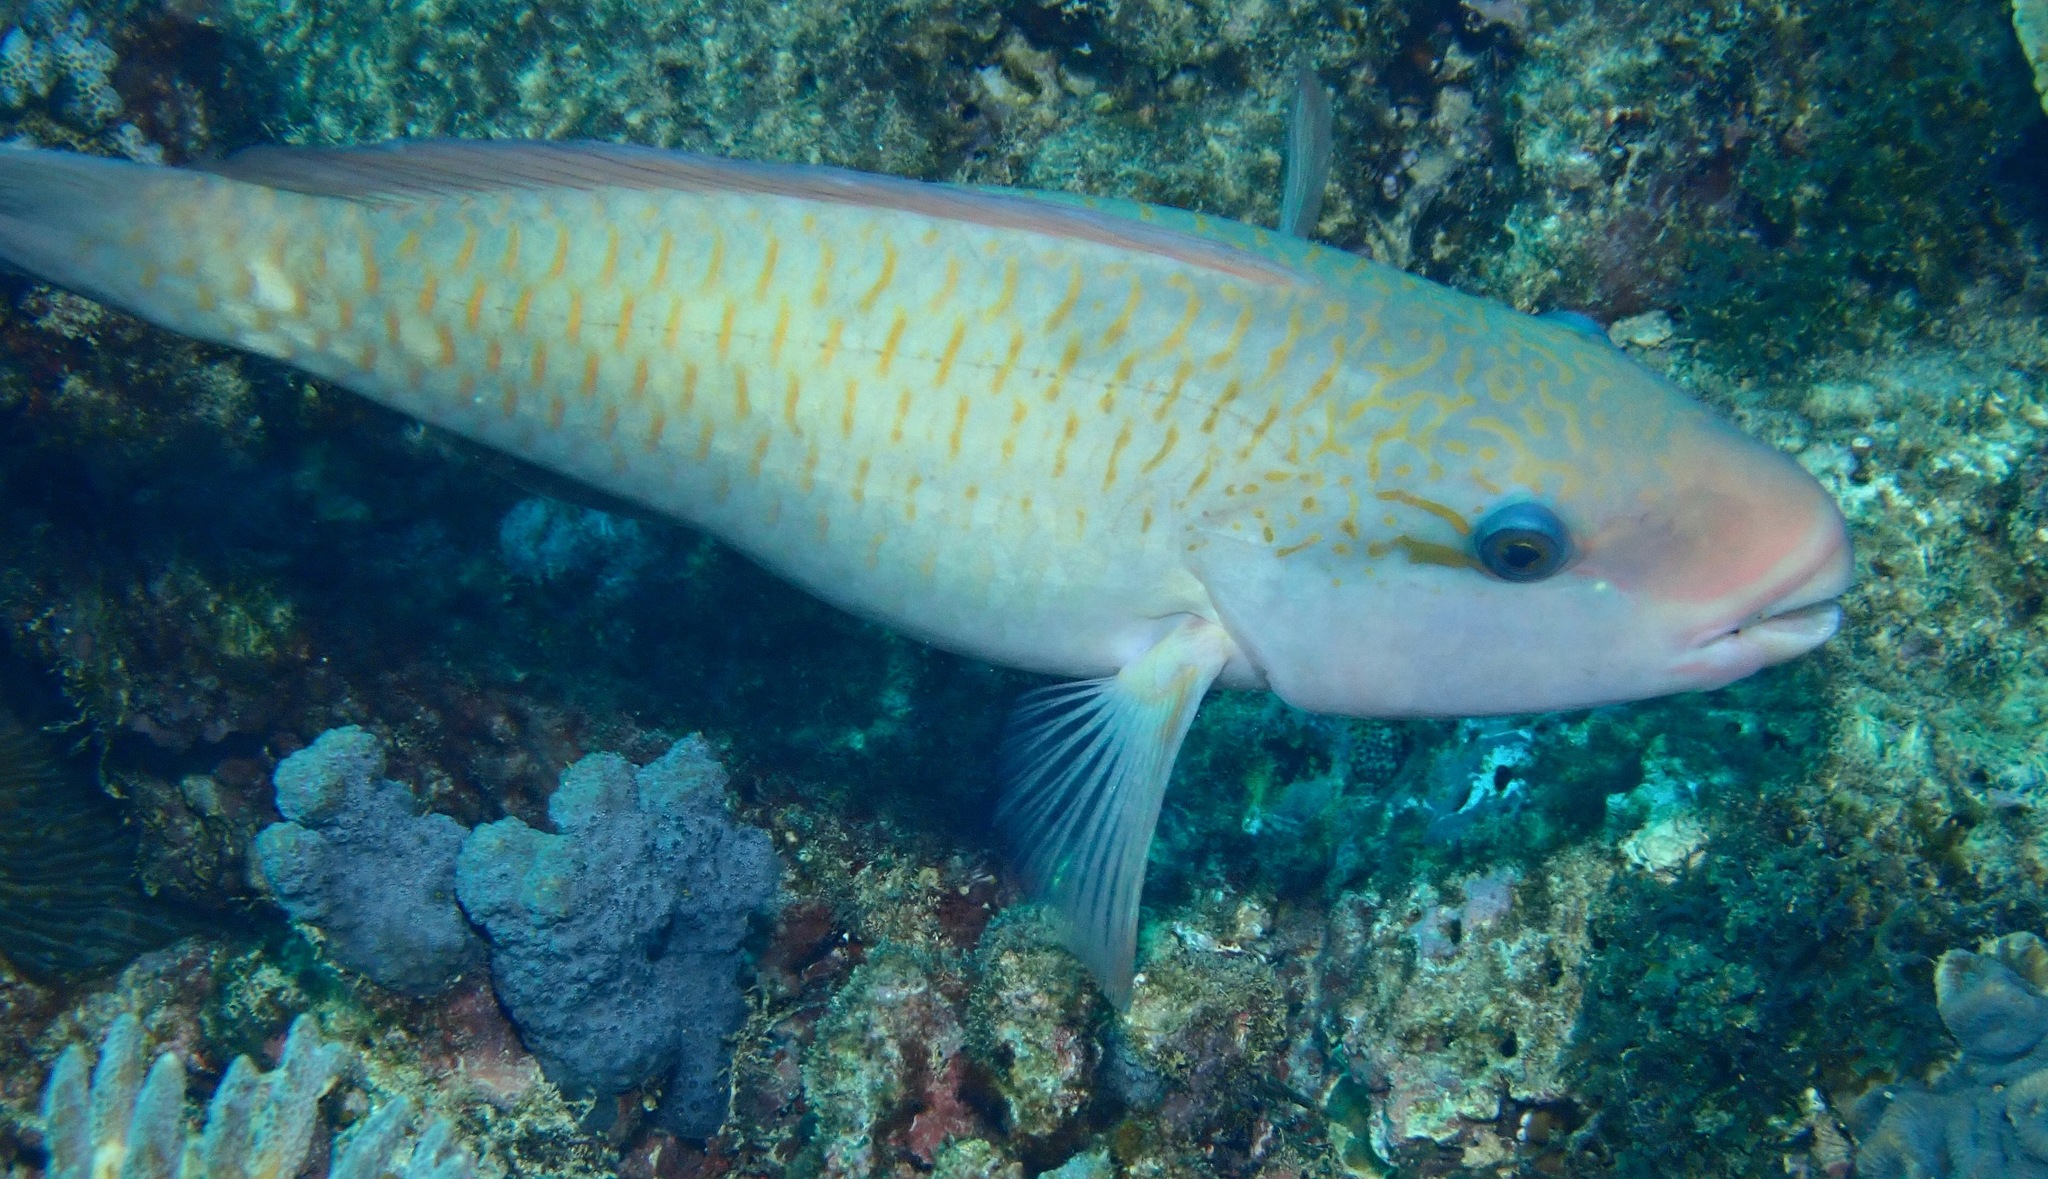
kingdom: Animalia
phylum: Chordata
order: Perciformes
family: Scaridae
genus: Chlorurus
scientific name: Chlorurus spilurus
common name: Bullethead parrotfish
